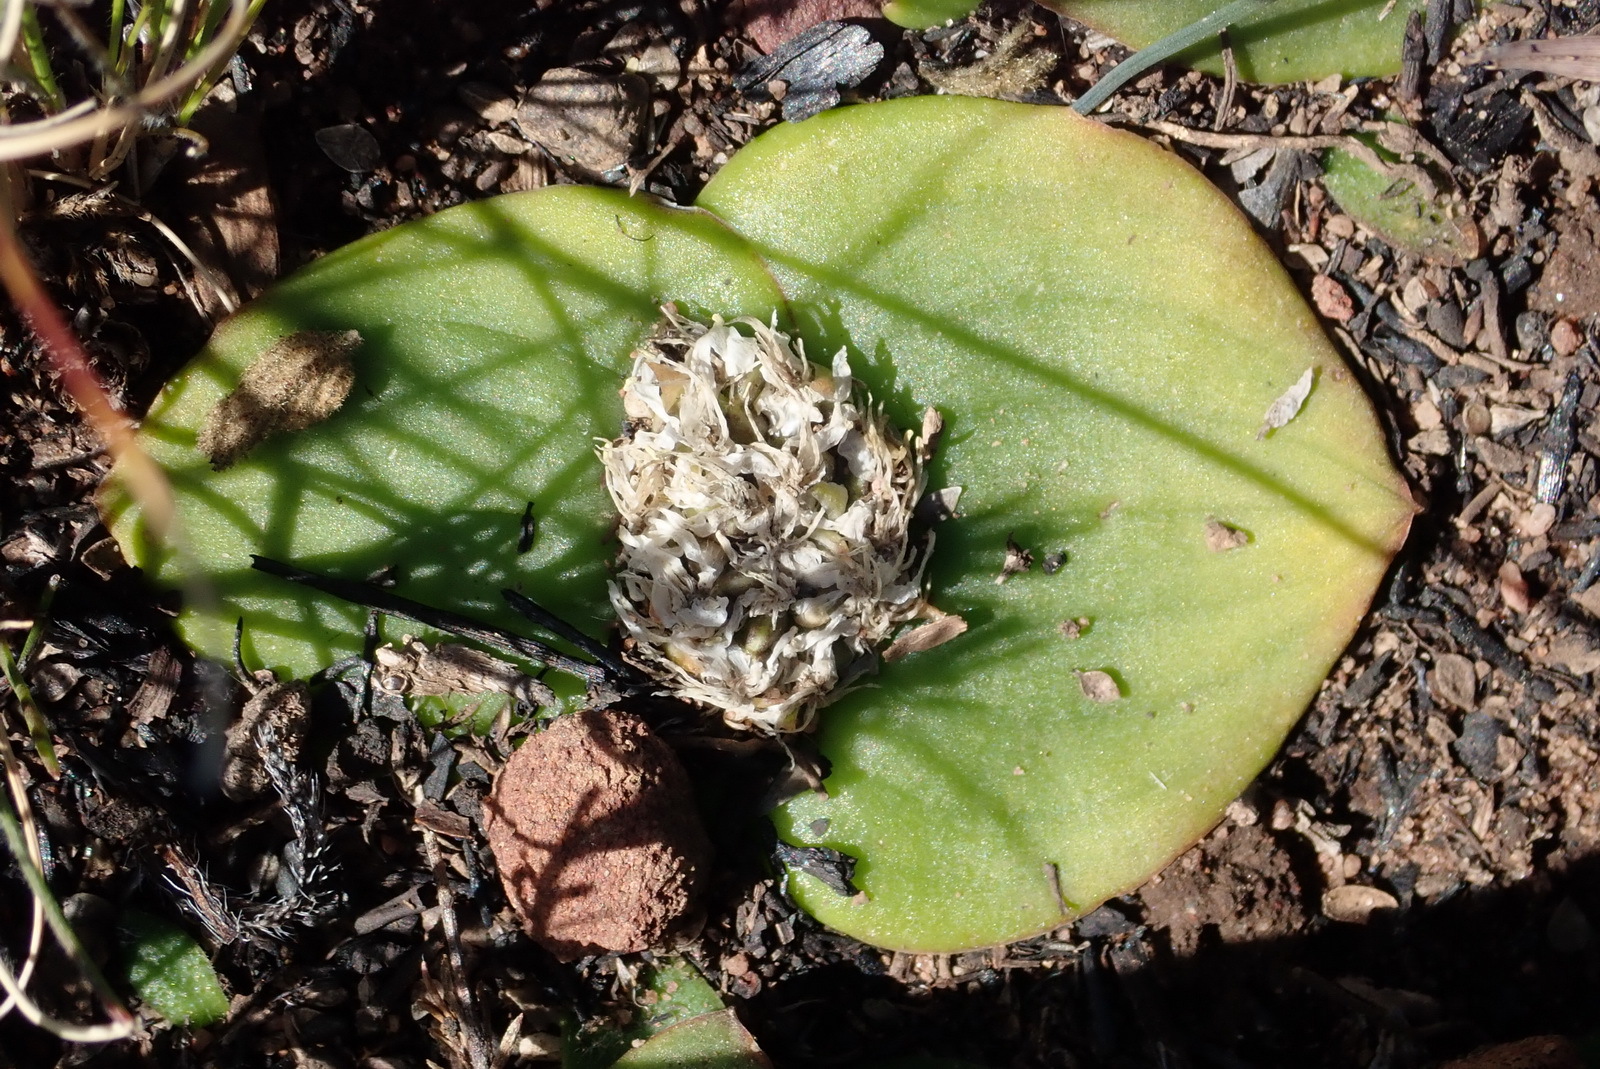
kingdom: Plantae
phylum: Tracheophyta
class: Liliopsida
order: Asparagales
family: Asparagaceae
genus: Massonia
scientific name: Massonia depressa
